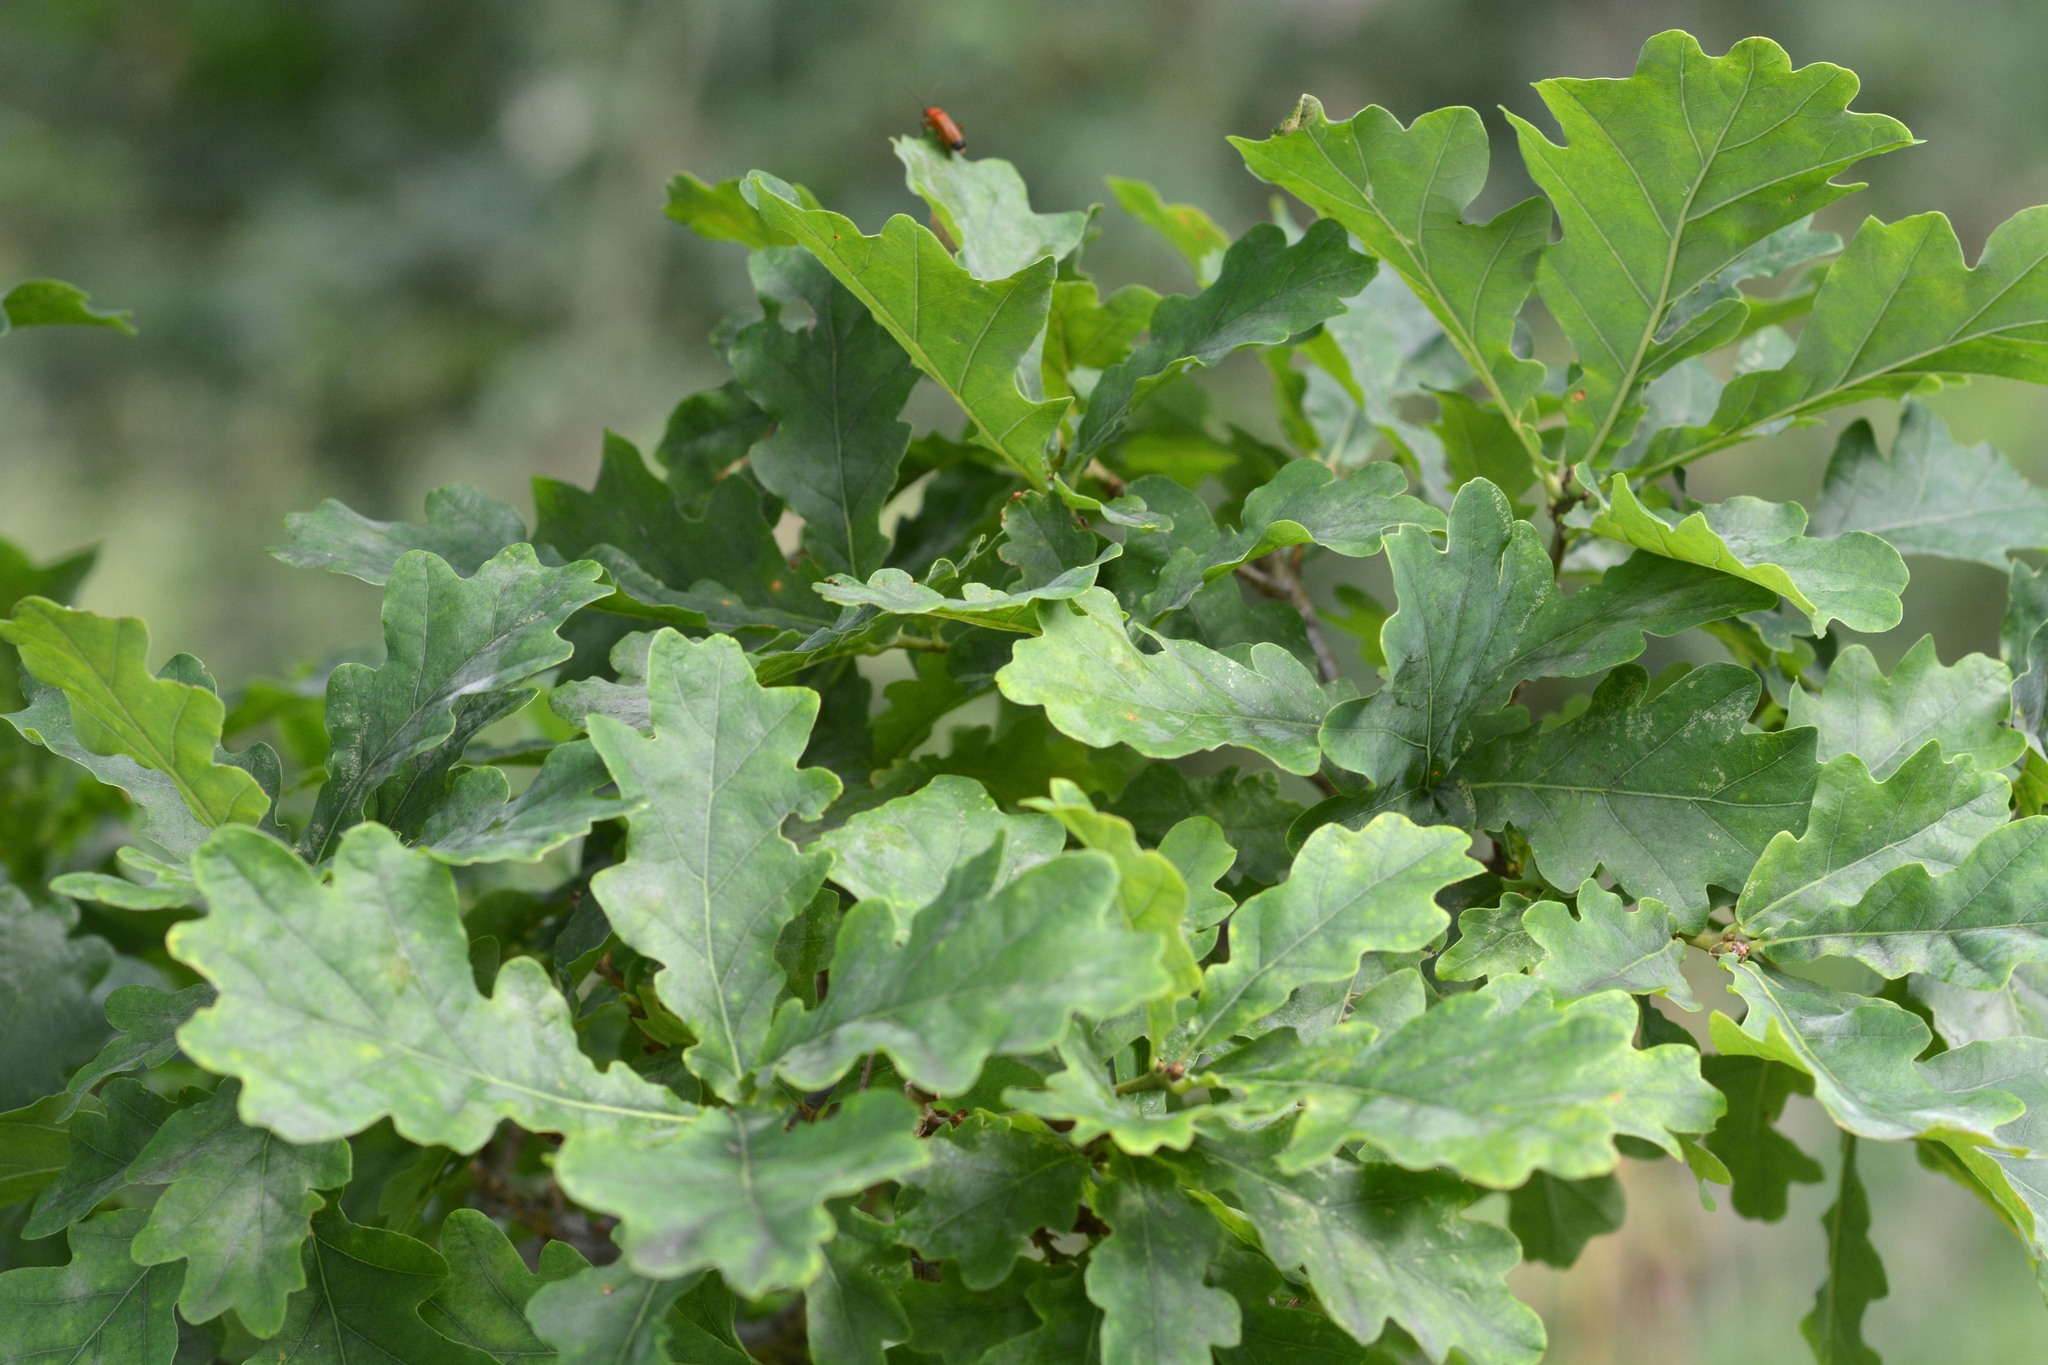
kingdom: Plantae
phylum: Tracheophyta
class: Magnoliopsida
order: Fagales
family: Fagaceae
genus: Quercus
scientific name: Quercus robur
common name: Pedunculate oak
